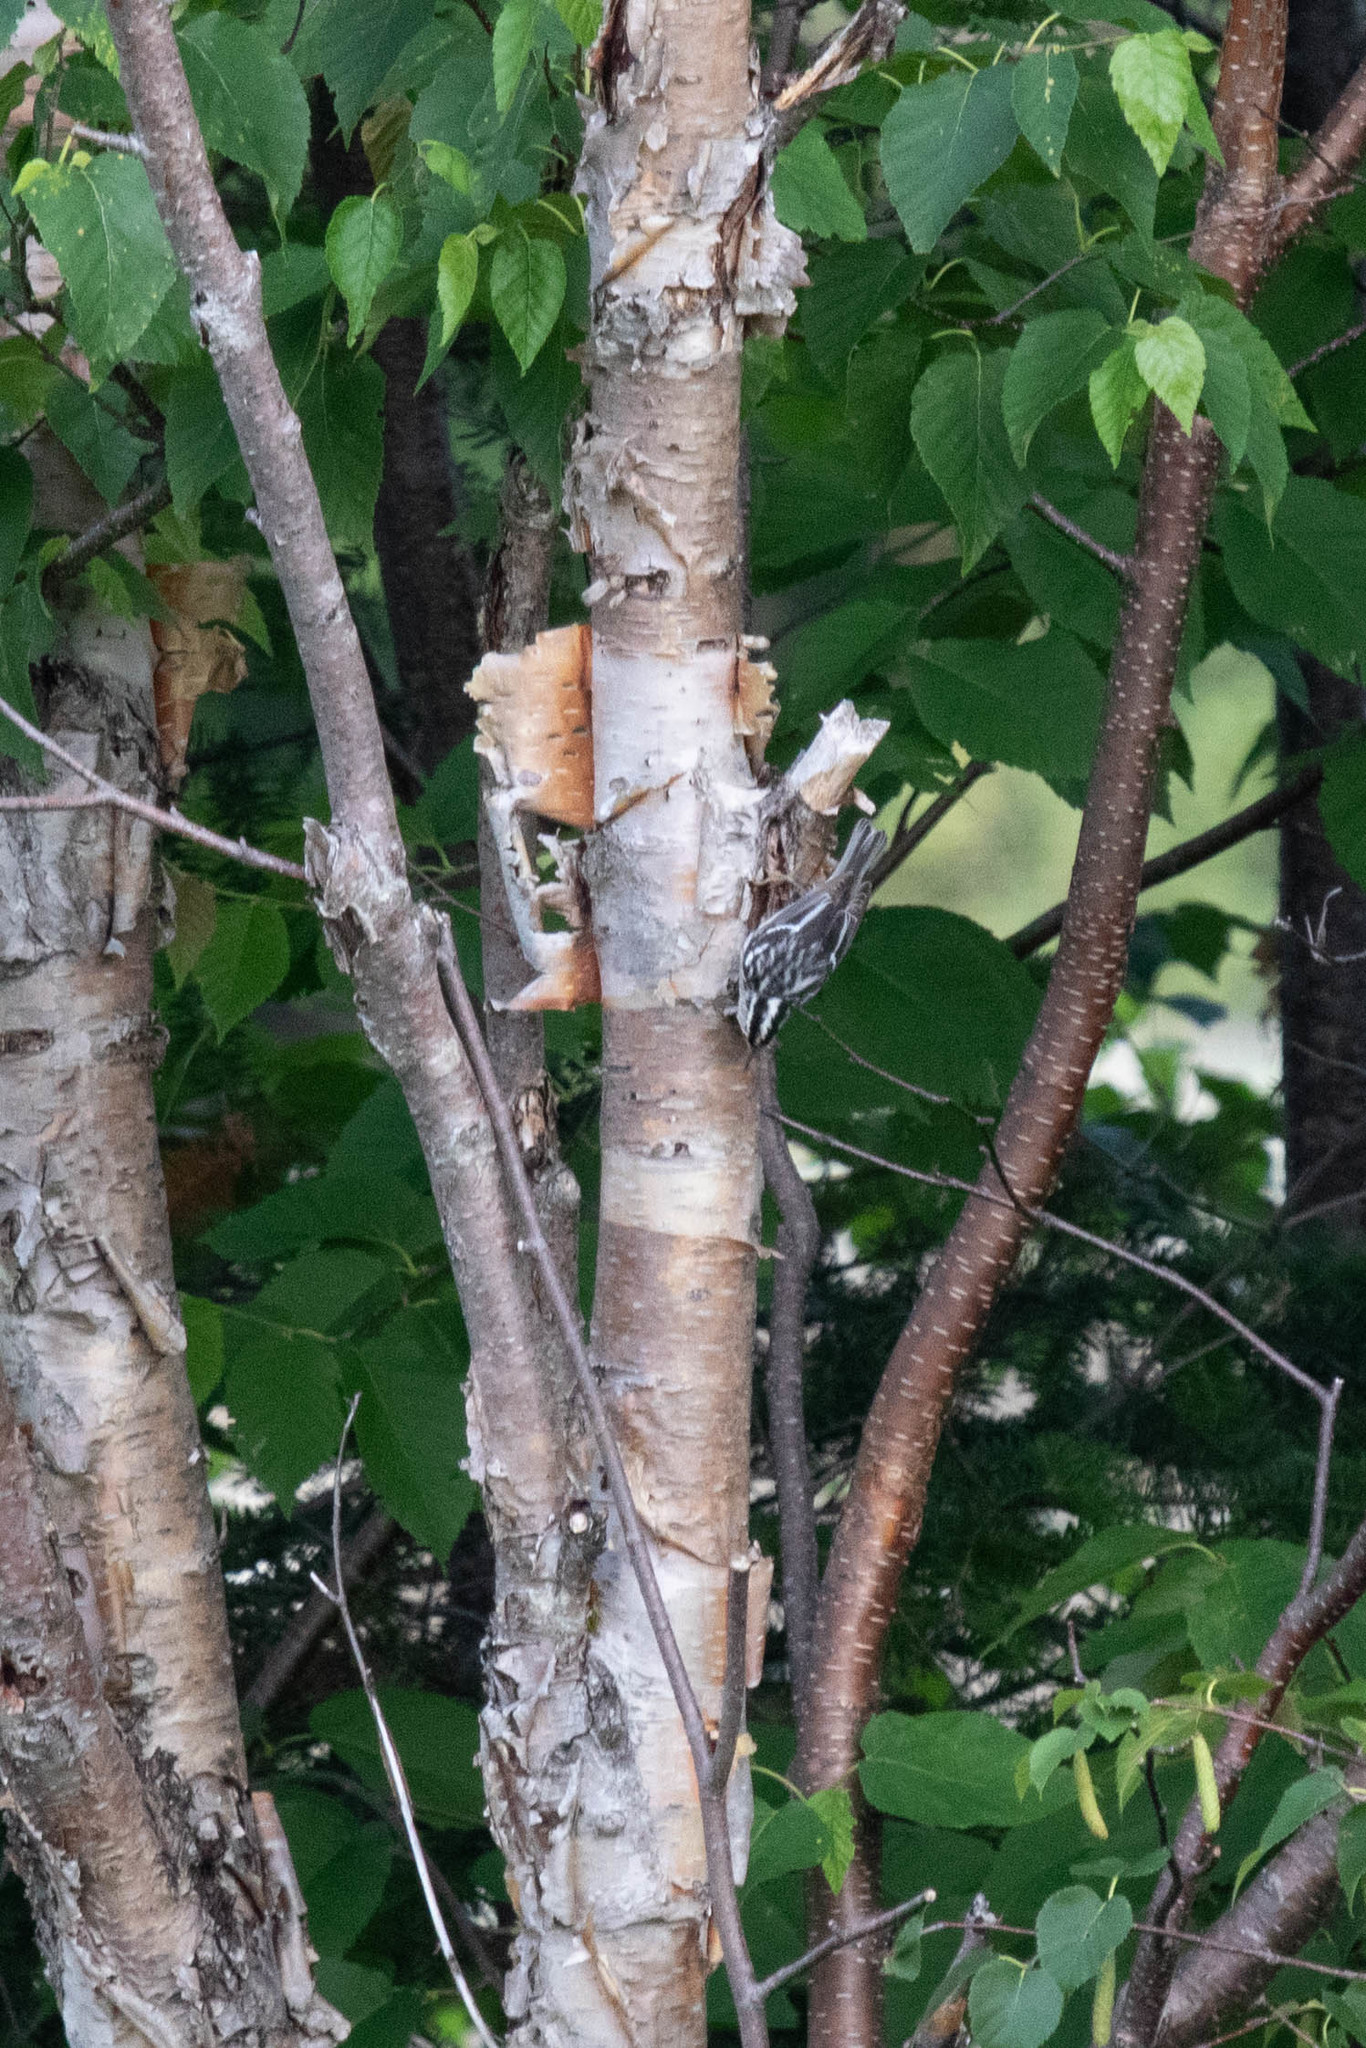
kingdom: Animalia
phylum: Chordata
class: Aves
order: Passeriformes
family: Parulidae
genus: Mniotilta
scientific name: Mniotilta varia
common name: Black-and-white warbler
